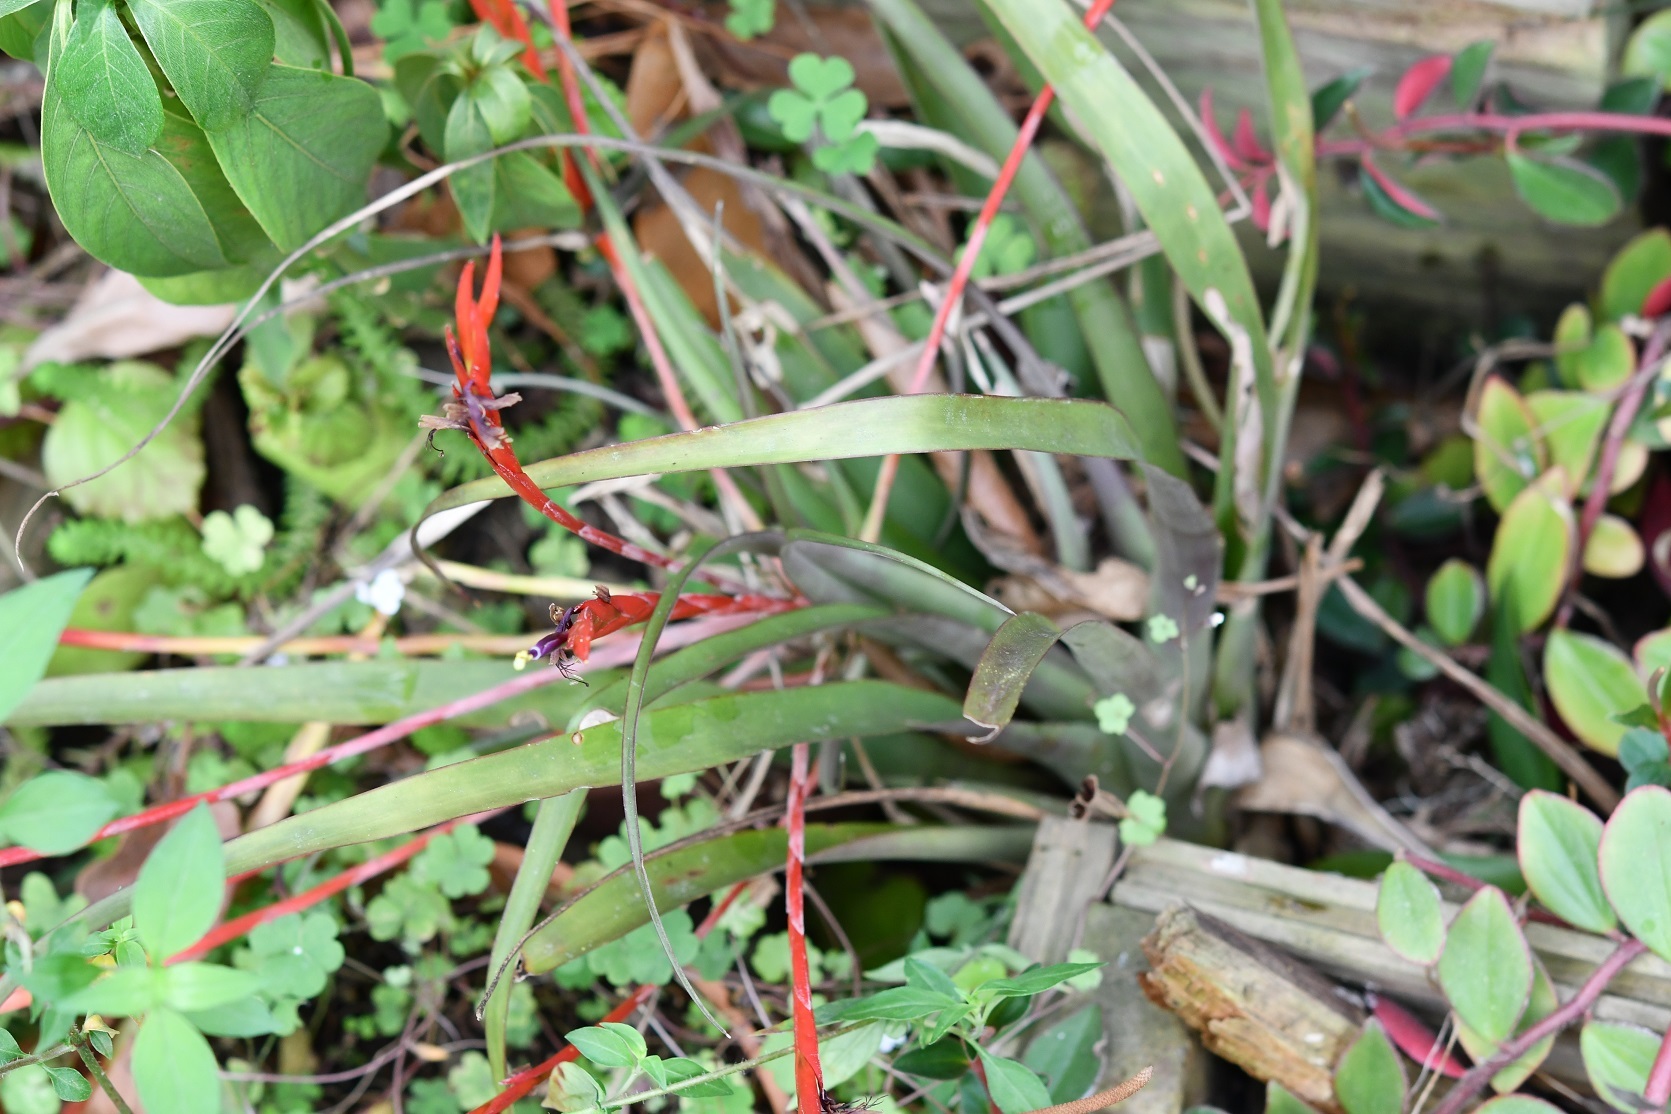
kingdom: Plantae
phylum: Tracheophyta
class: Liliopsida
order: Poales
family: Bromeliaceae
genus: Tillandsia
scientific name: Tillandsia flabellata
